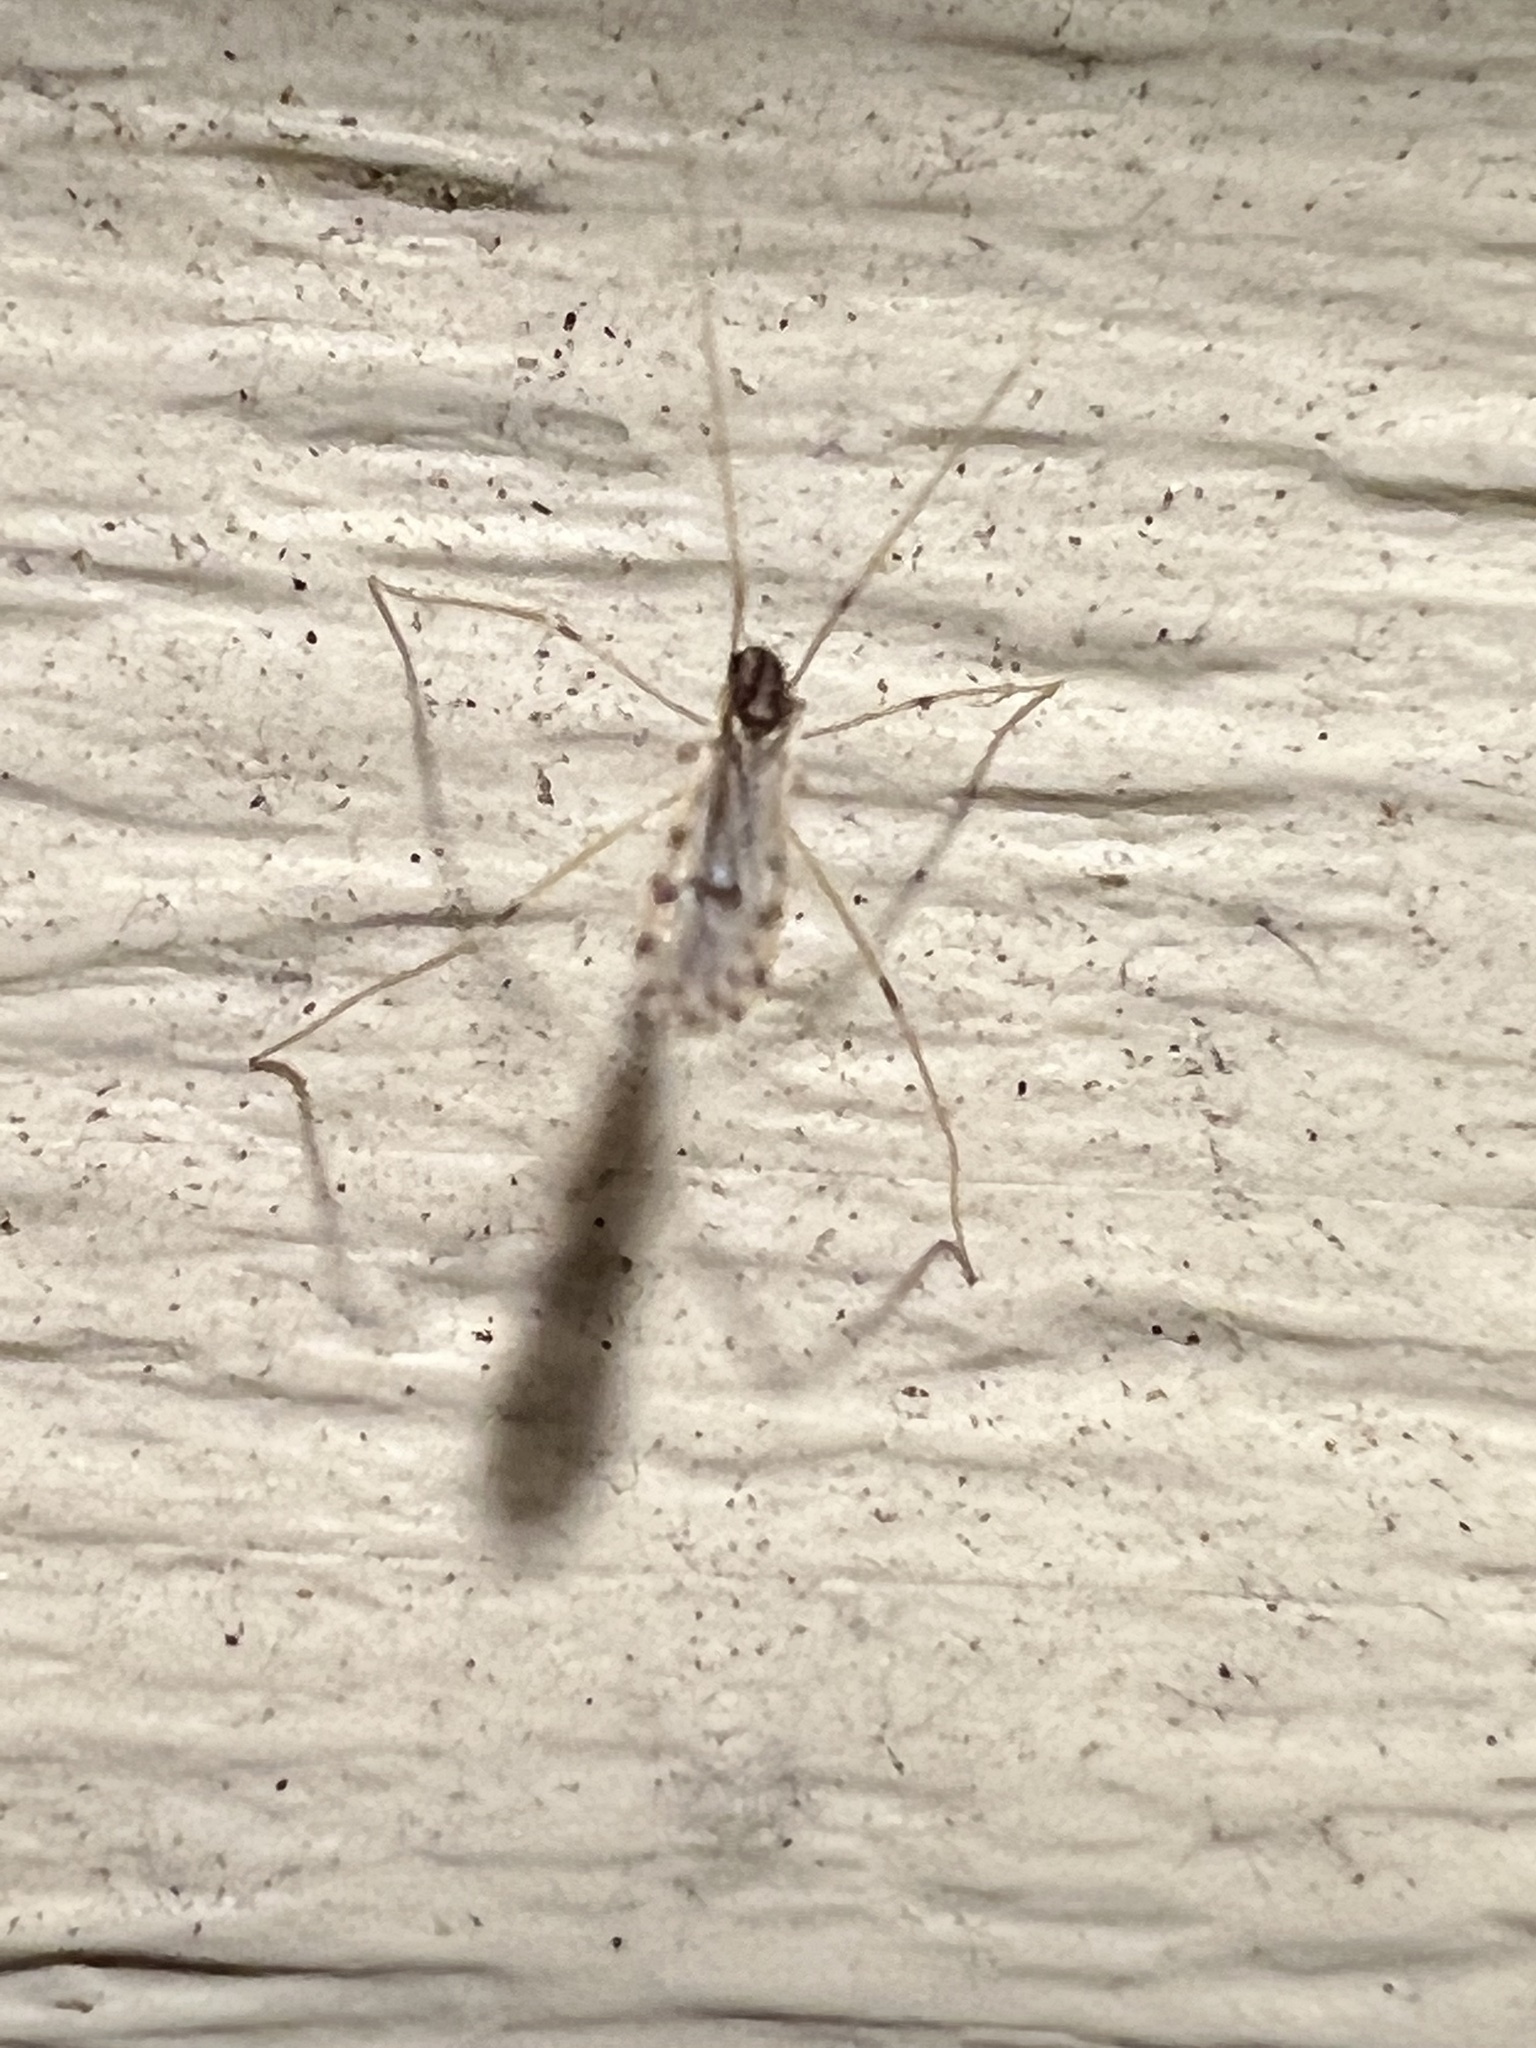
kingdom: Animalia
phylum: Arthropoda
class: Insecta
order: Diptera
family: Limoniidae
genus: Erioptera
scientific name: Erioptera parva
